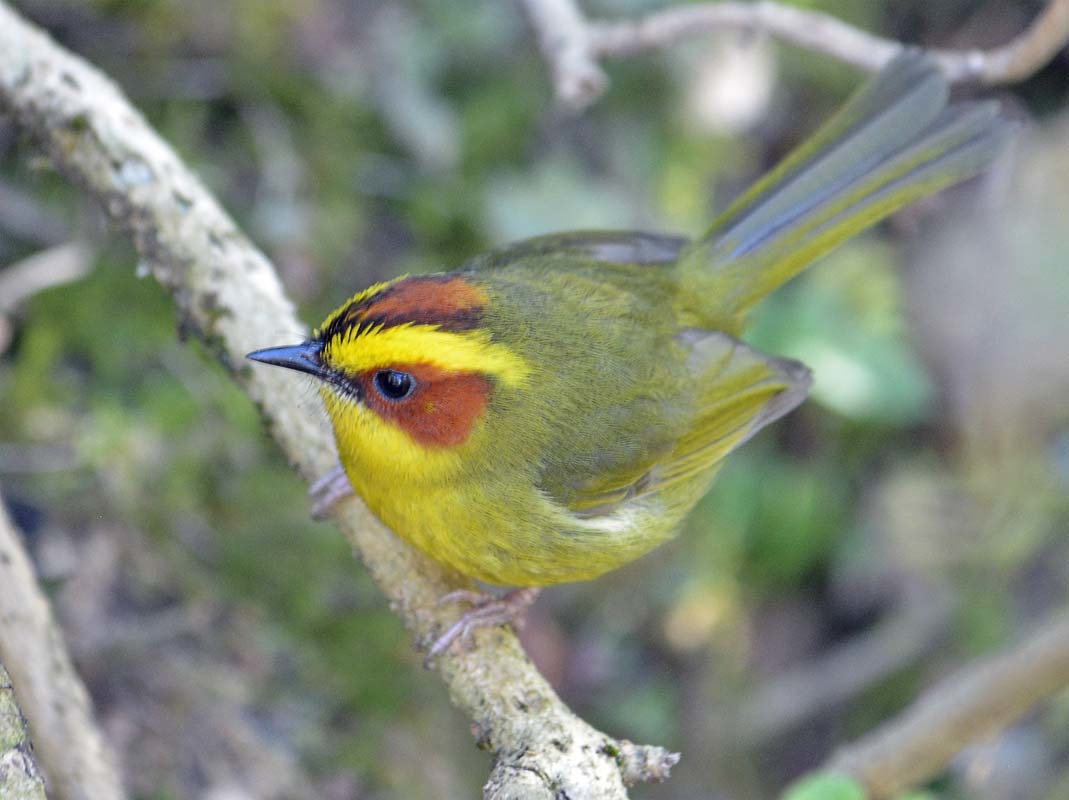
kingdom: Animalia
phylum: Chordata
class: Aves
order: Passeriformes
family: Parulidae
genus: Basileuterus
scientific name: Basileuterus belli
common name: Golden-browed warbler
